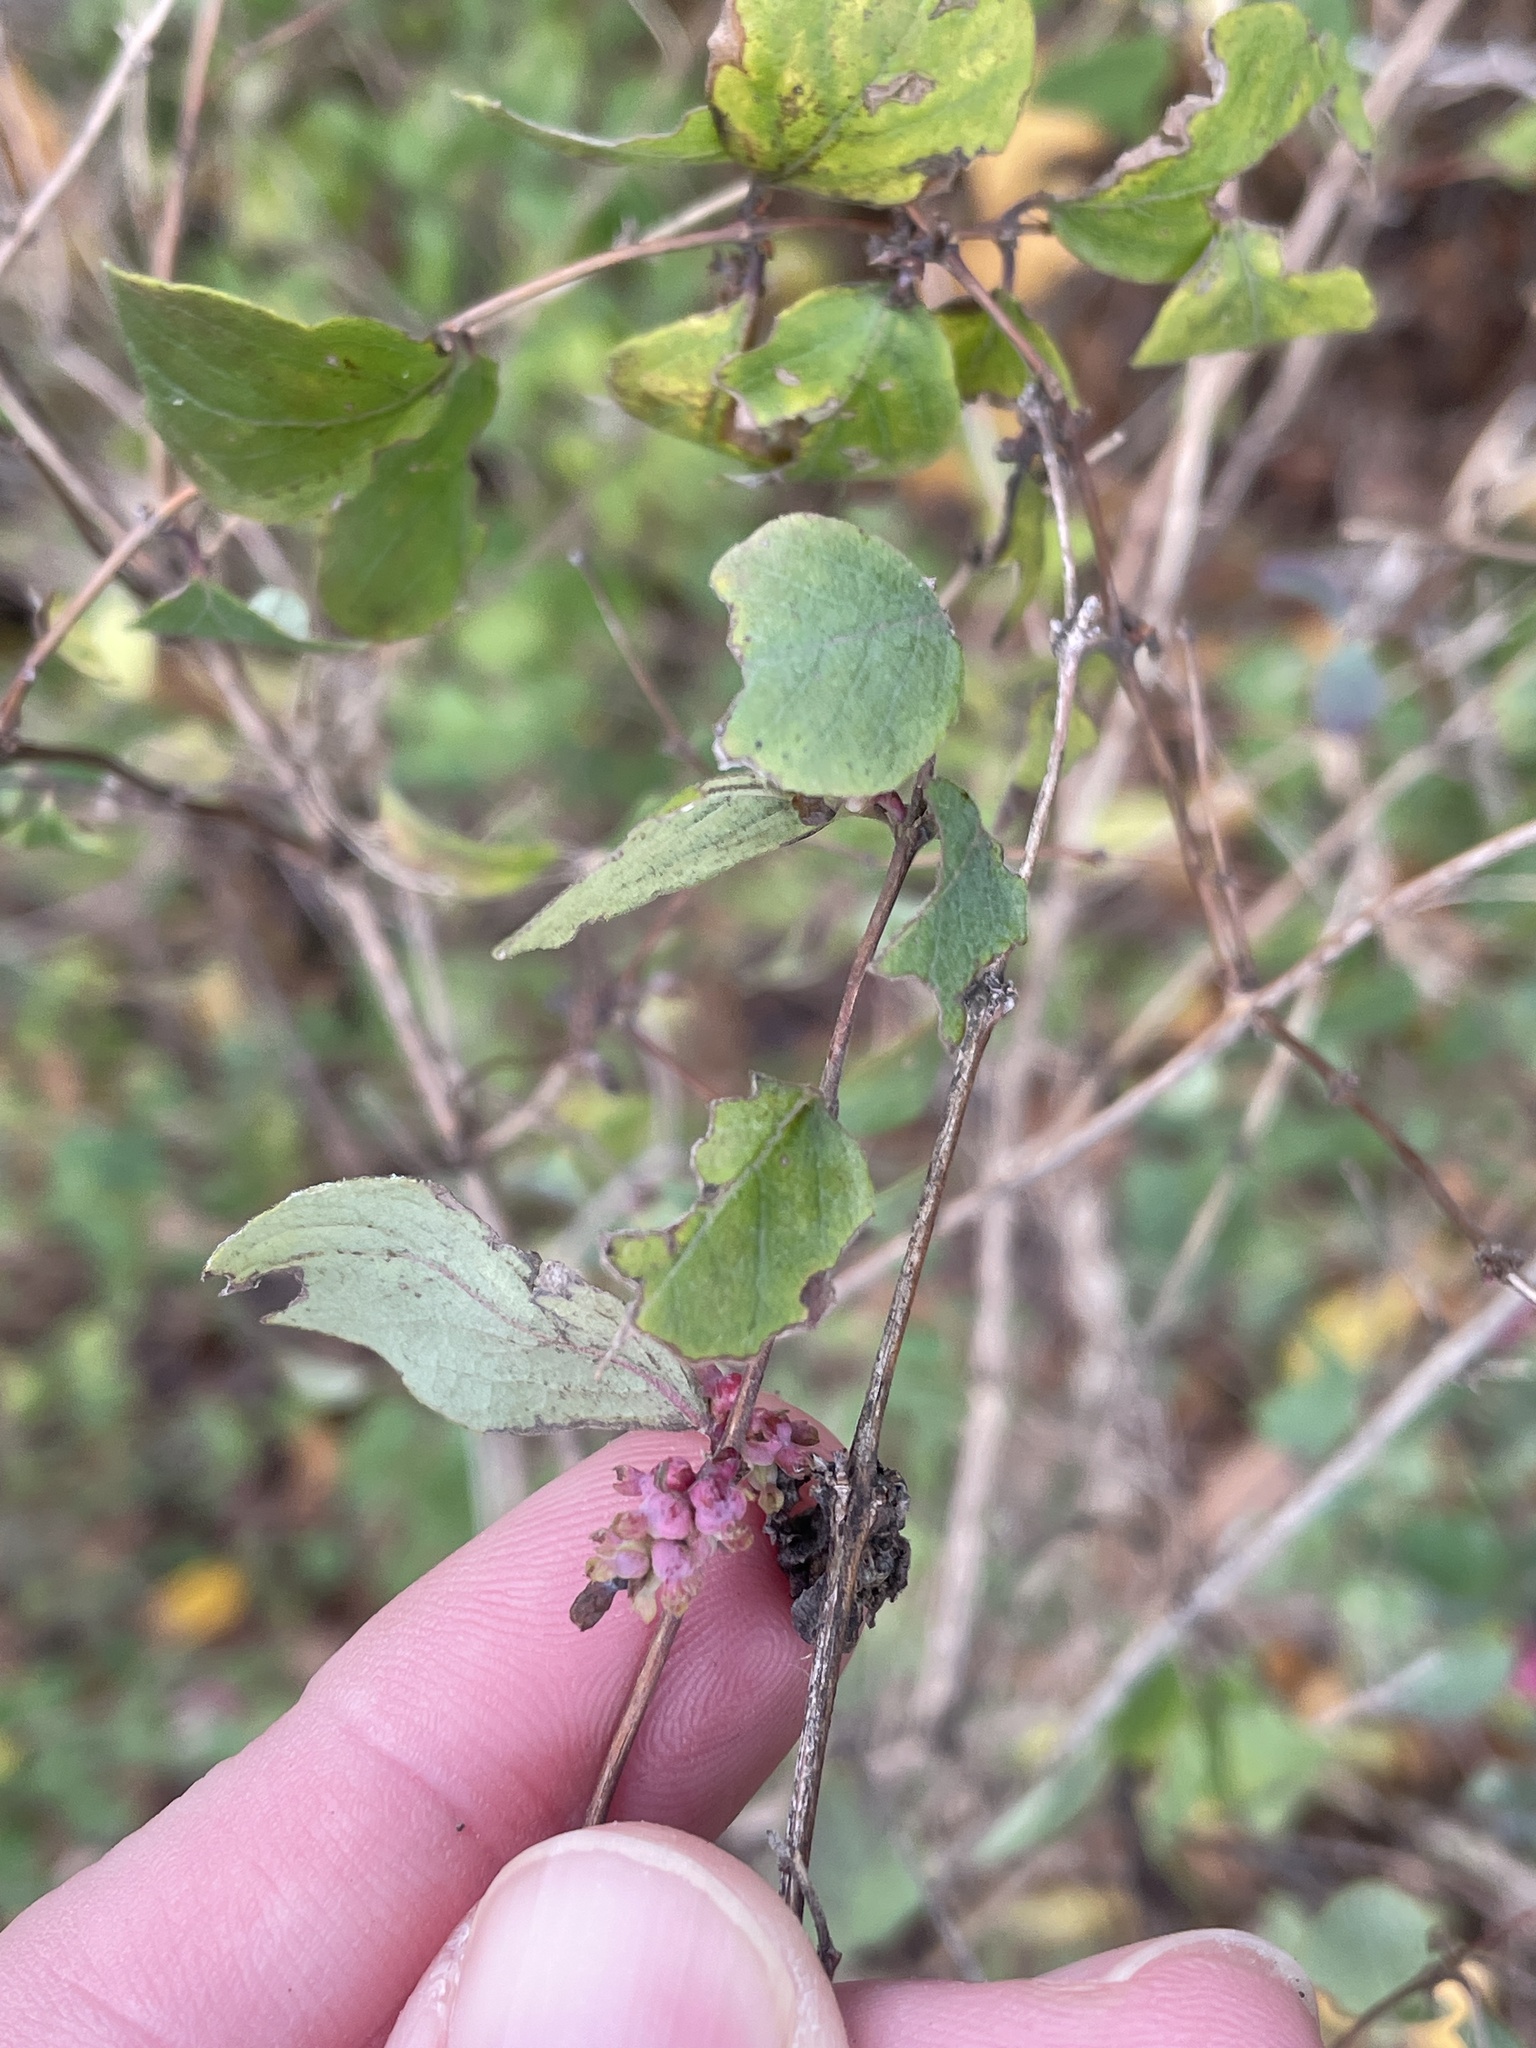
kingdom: Plantae
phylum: Tracheophyta
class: Magnoliopsida
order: Dipsacales
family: Caprifoliaceae
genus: Symphoricarpos
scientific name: Symphoricarpos orbiculatus
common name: Coralberry
